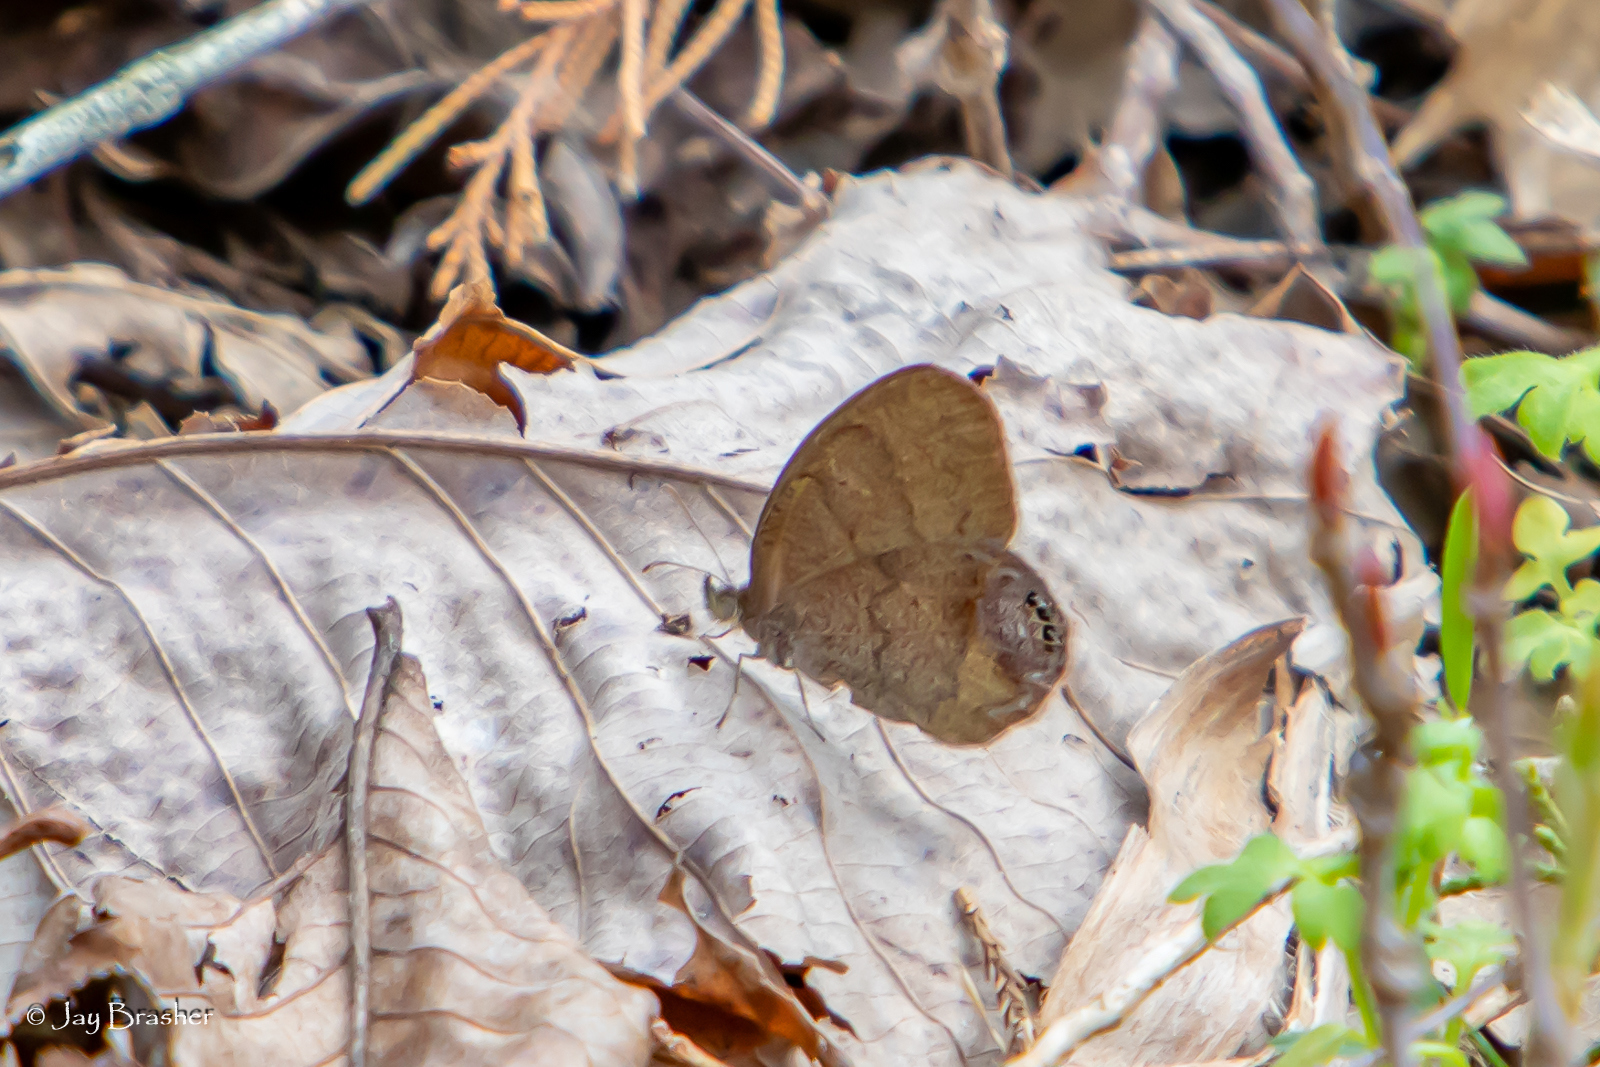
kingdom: Animalia
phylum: Arthropoda
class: Insecta
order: Lepidoptera
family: Nymphalidae
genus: Euptychia
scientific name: Euptychia cornelius
